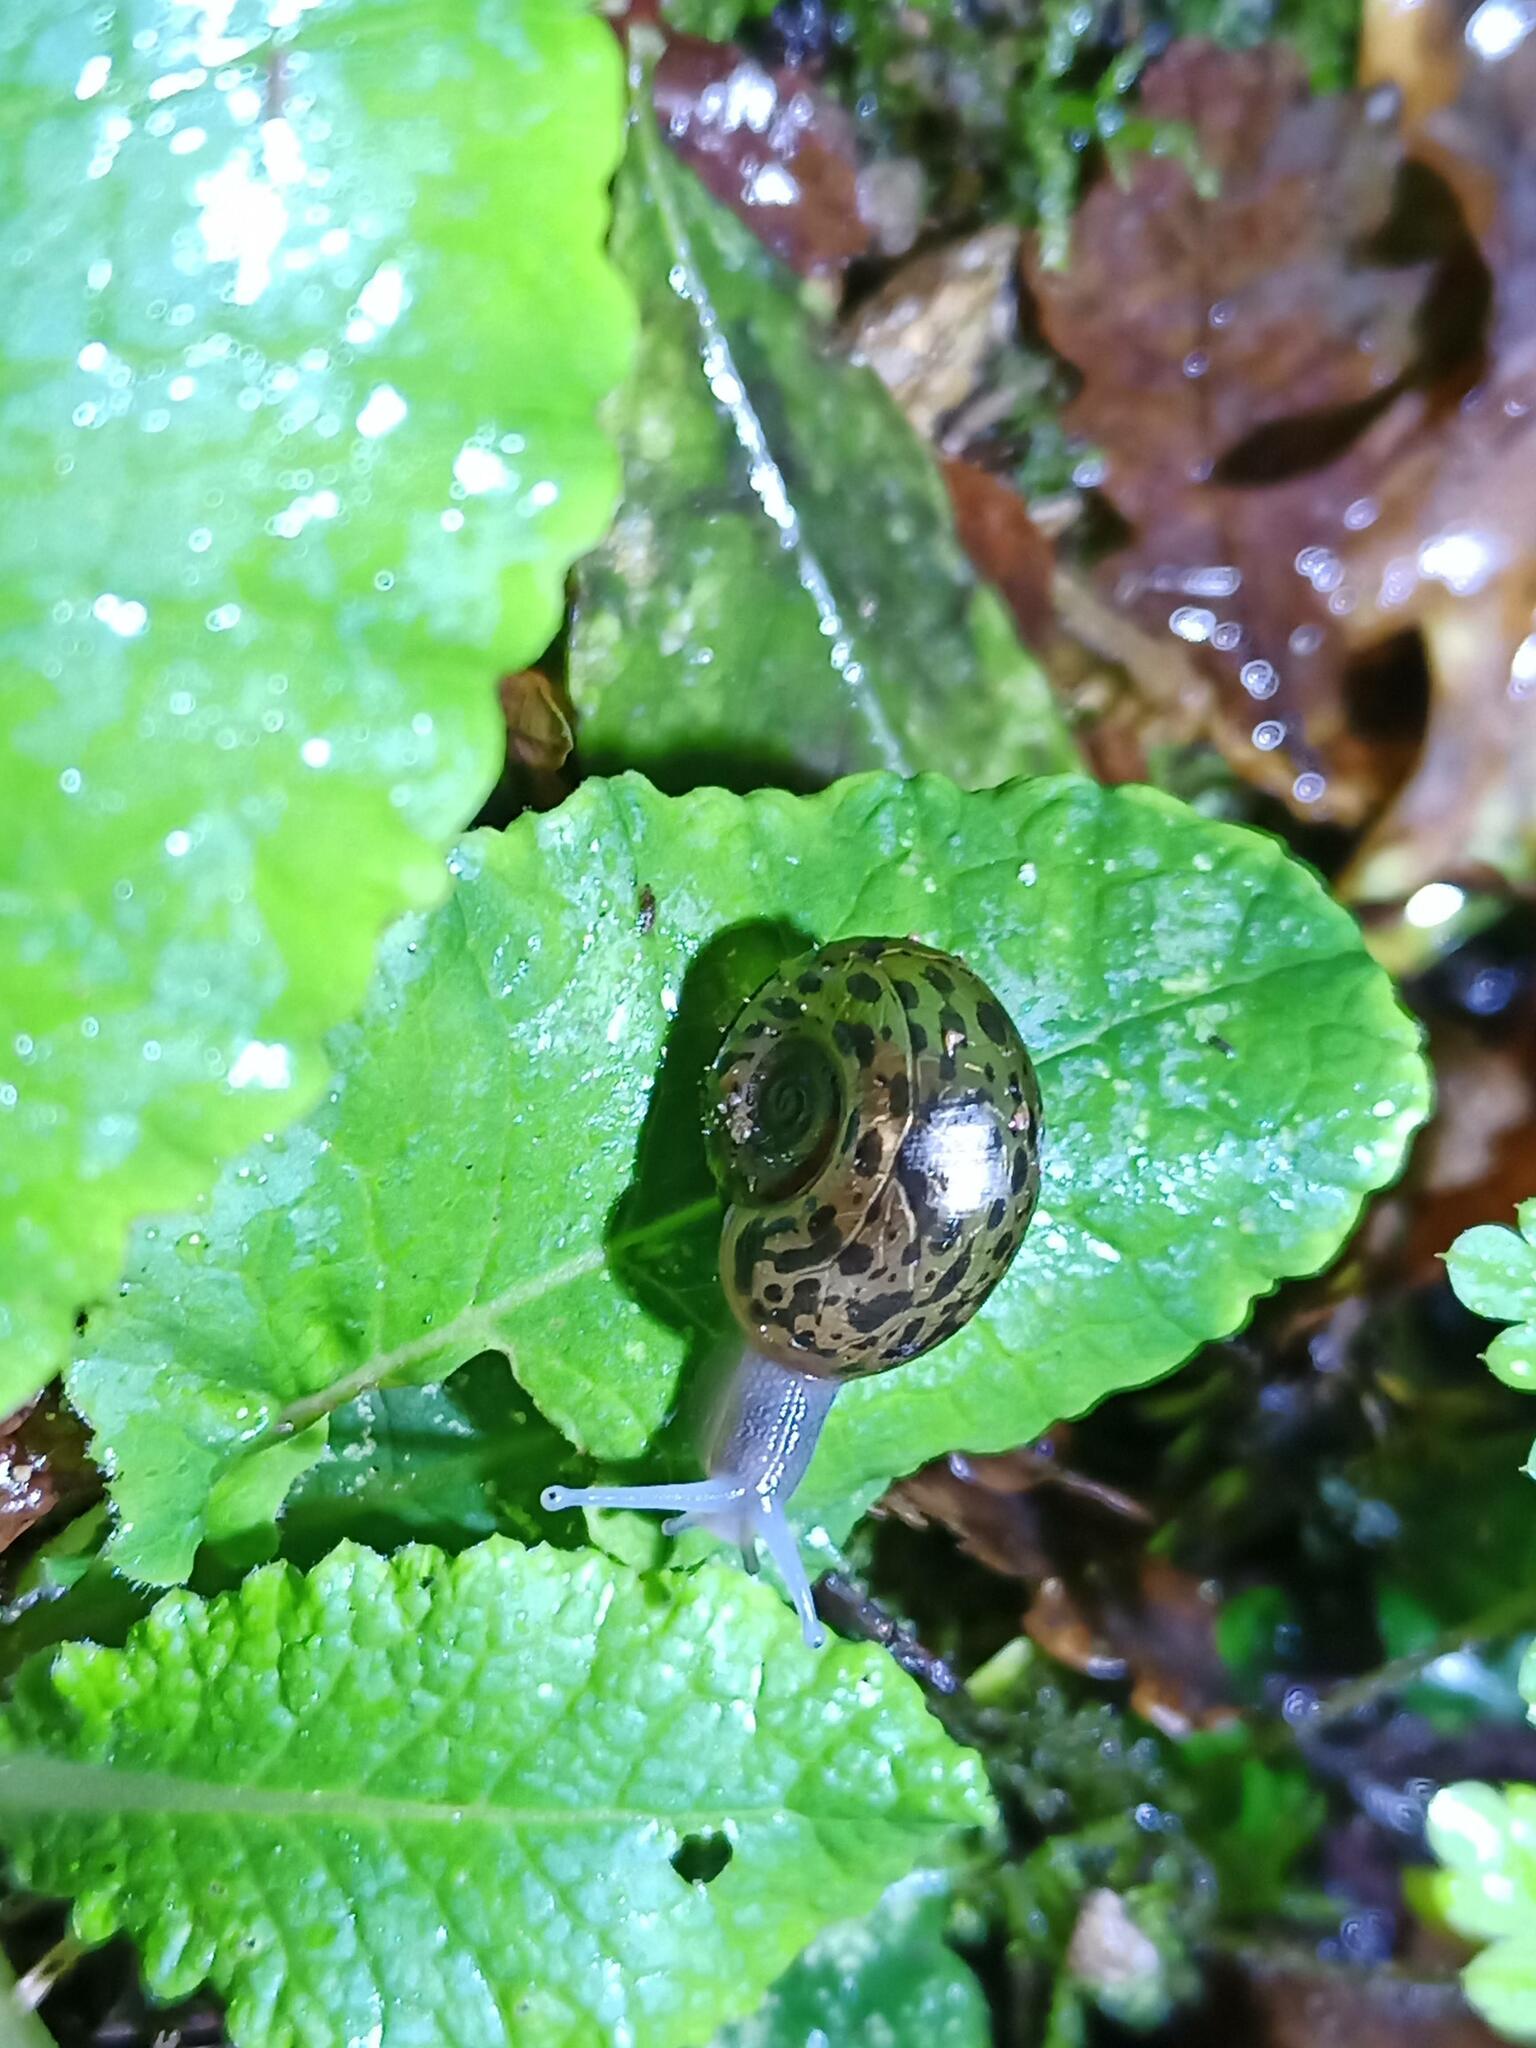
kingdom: Animalia
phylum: Mollusca
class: Gastropoda
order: Stylommatophora
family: Elonidae
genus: Elona
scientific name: Elona quimperiana
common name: Quimper snail
